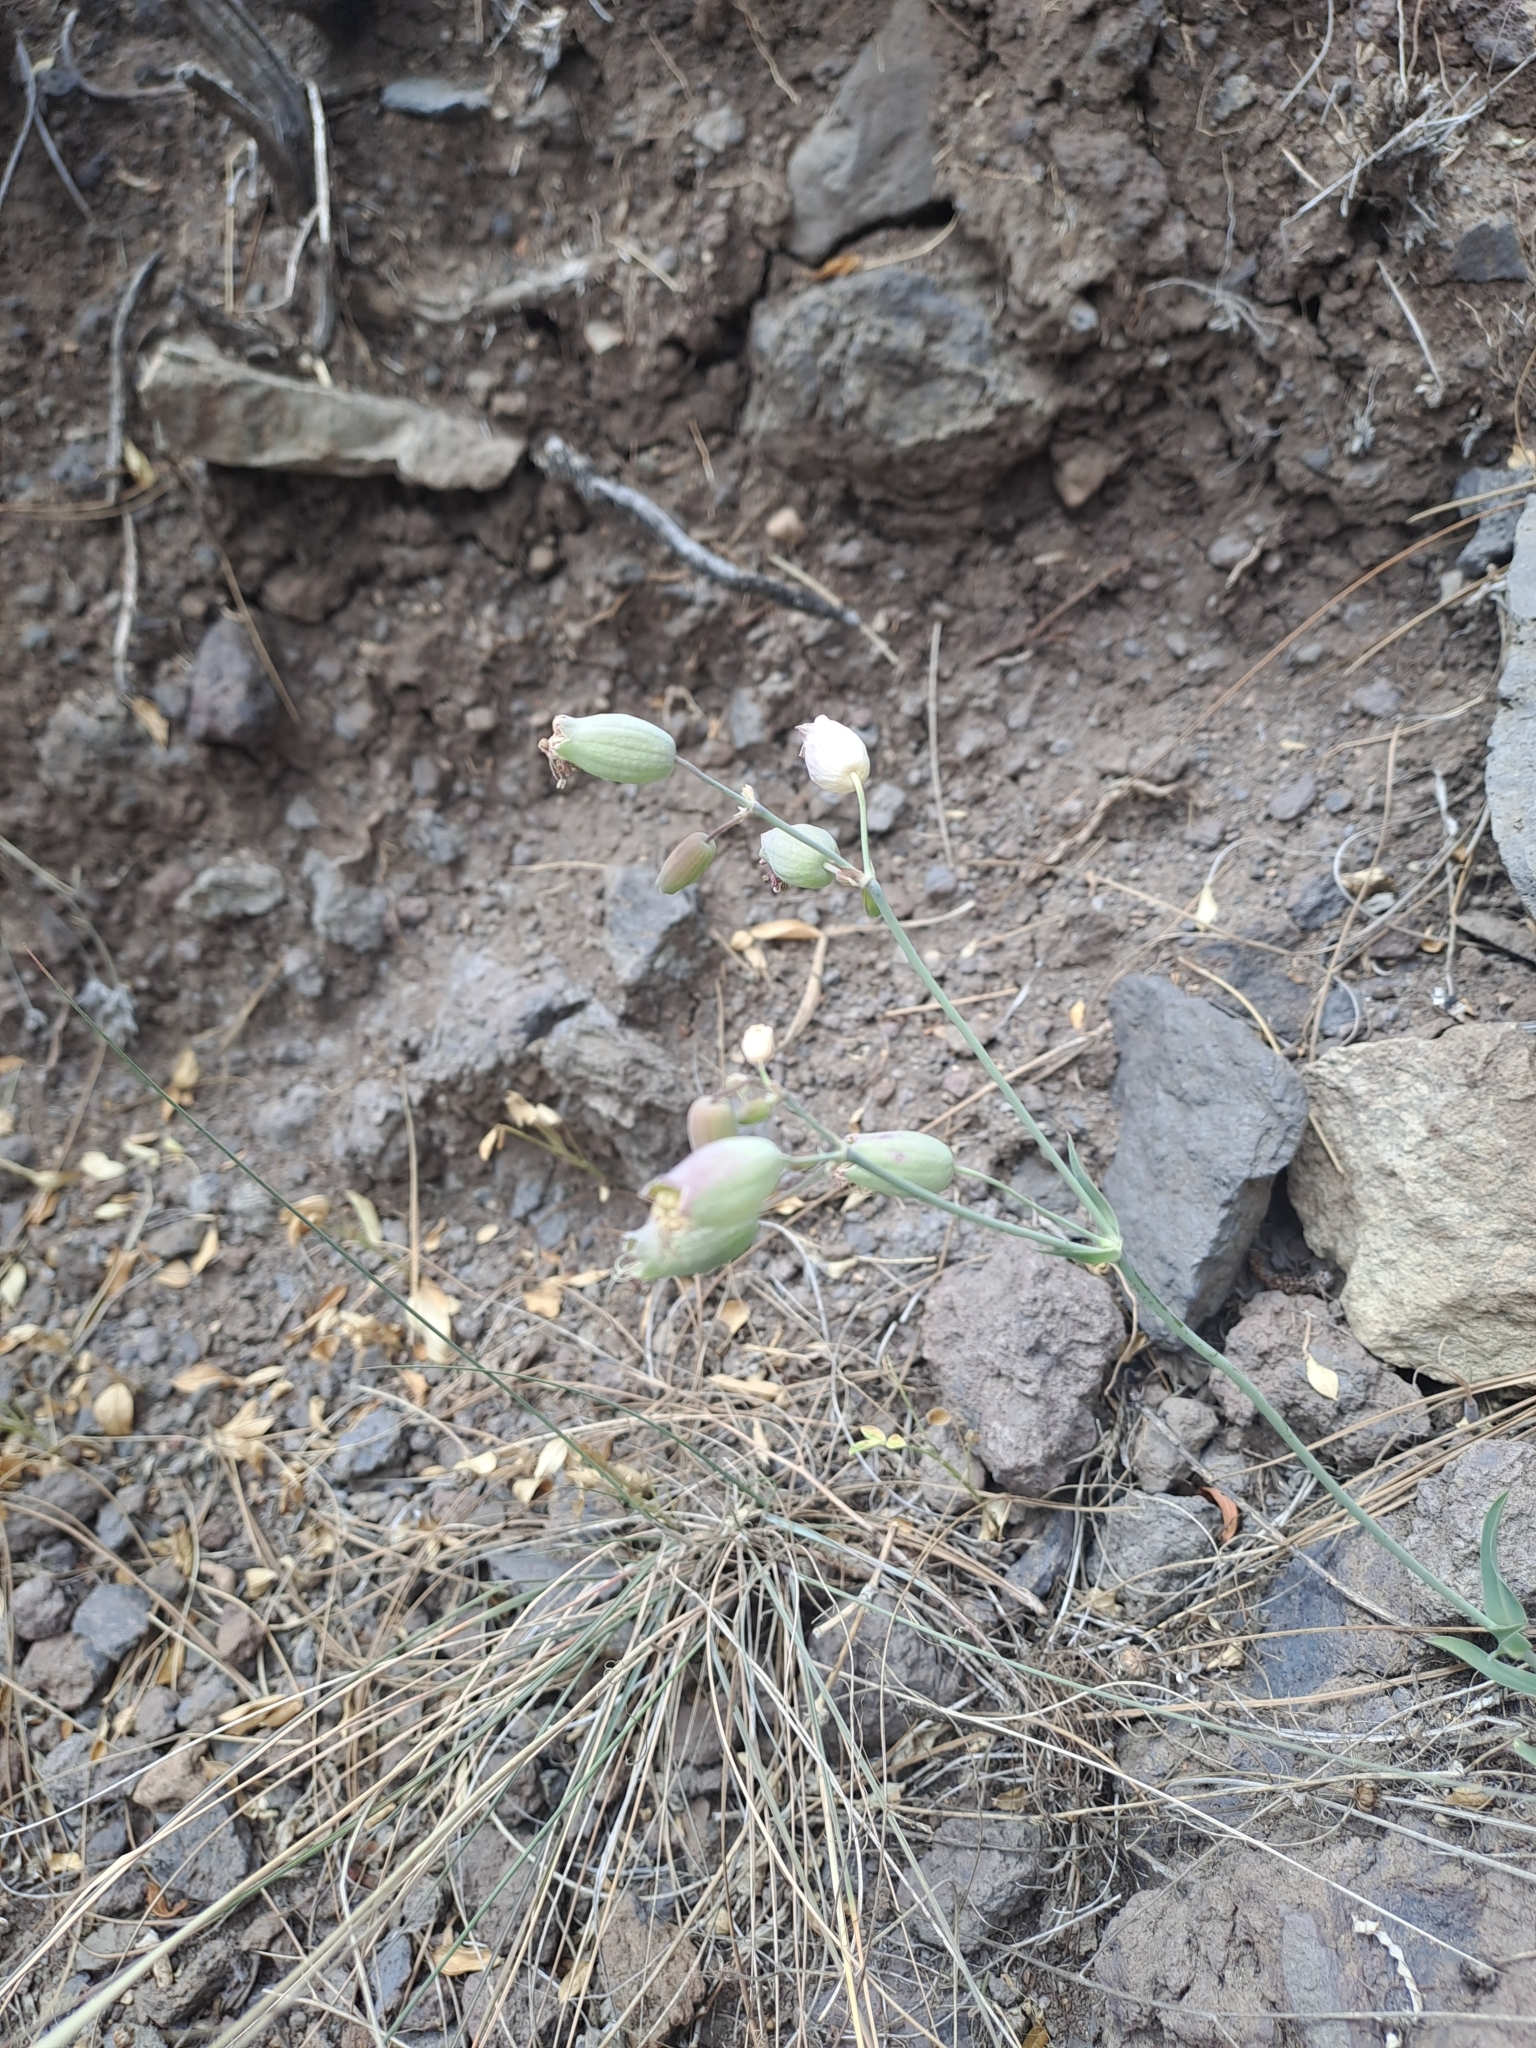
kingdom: Plantae
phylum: Tracheophyta
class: Magnoliopsida
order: Caryophyllales
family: Caryophyllaceae
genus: Silene
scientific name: Silene vulgaris
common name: Bladder campion
